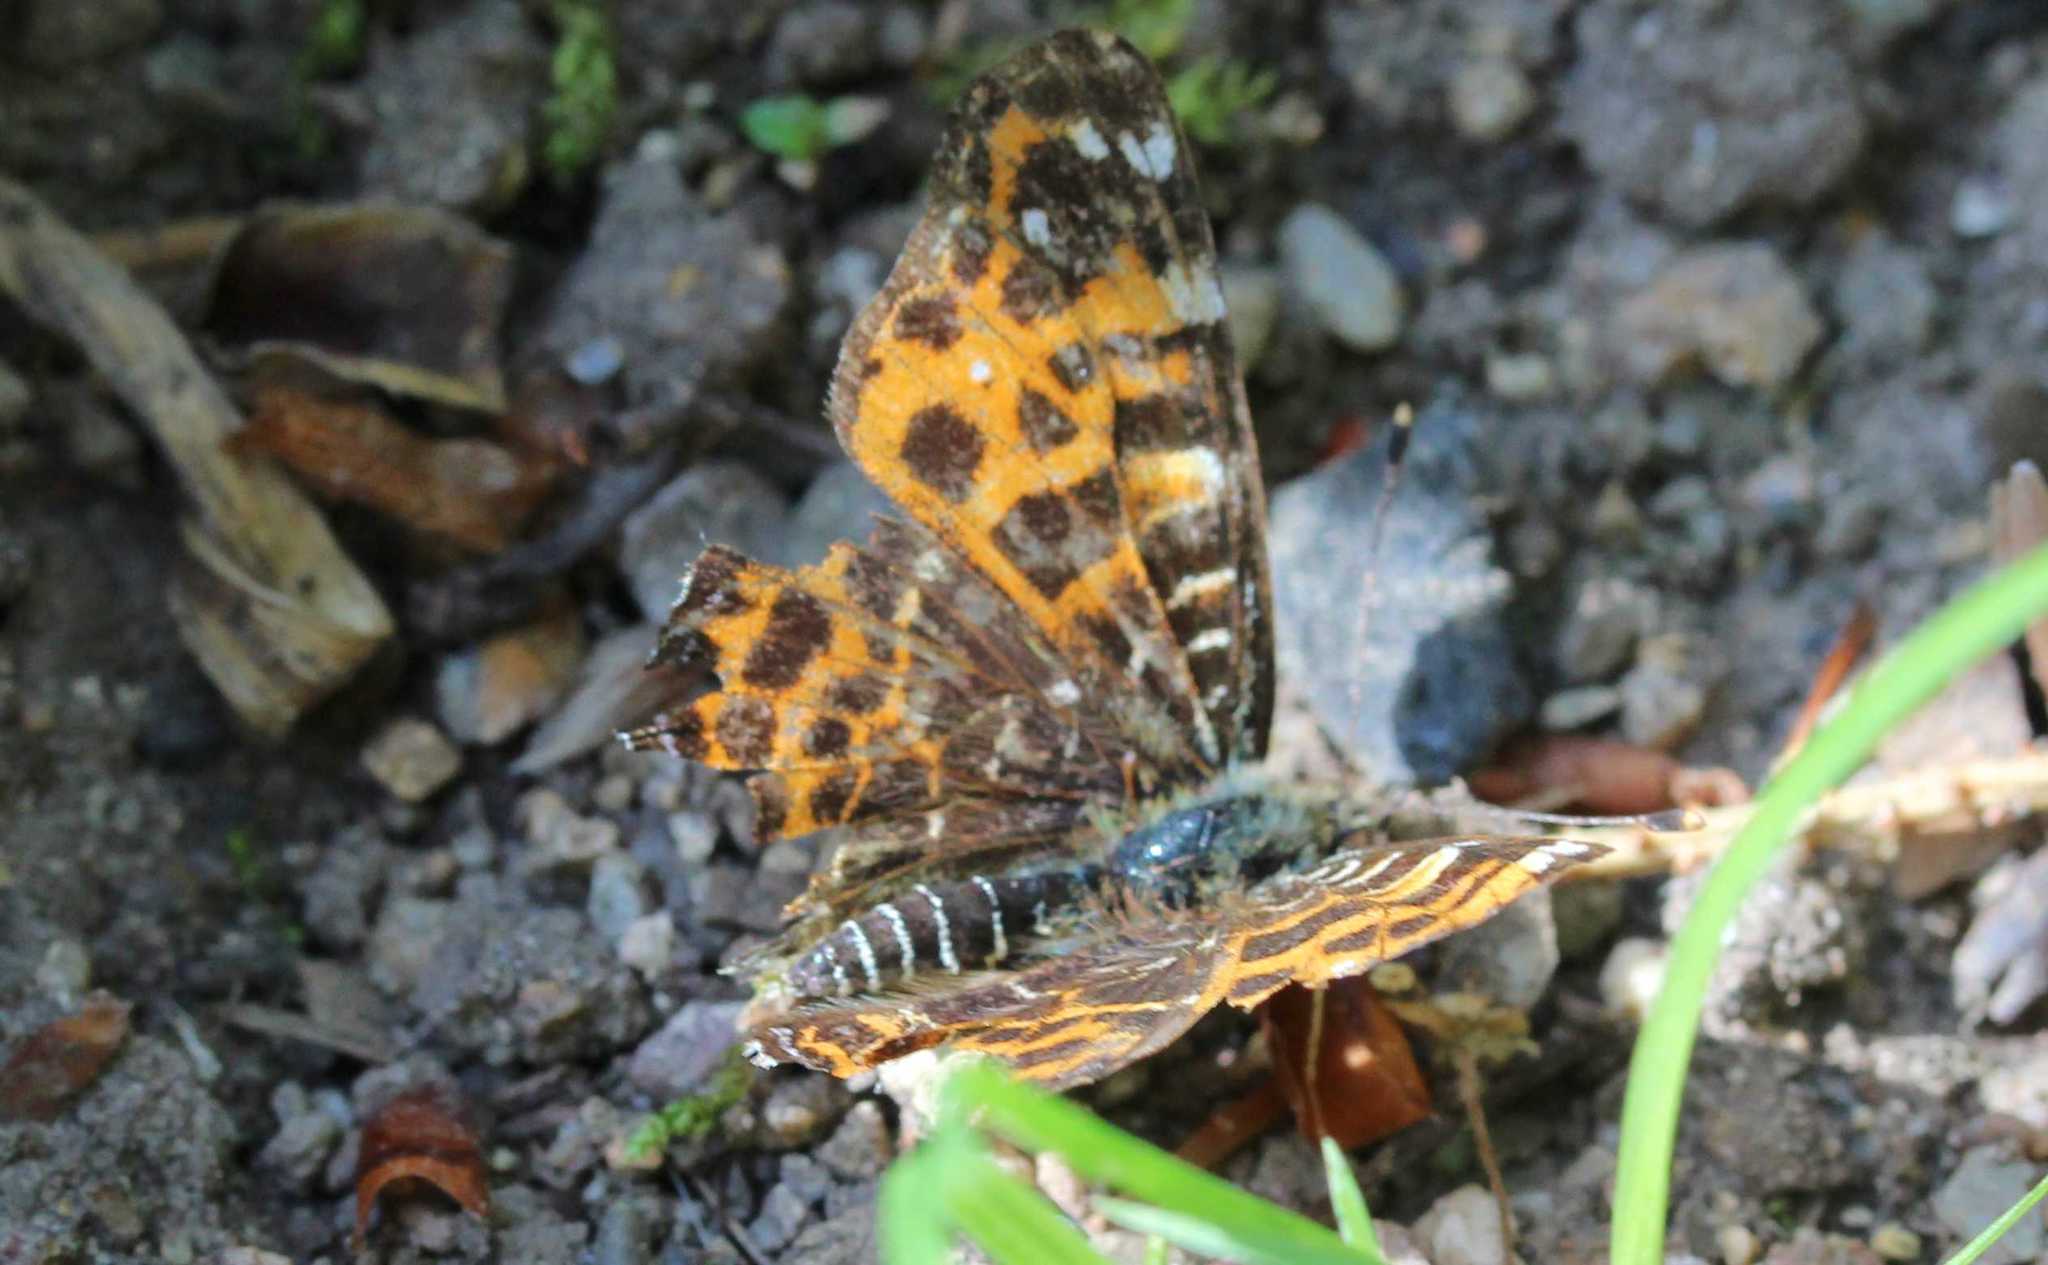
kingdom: Animalia
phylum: Arthropoda
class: Insecta
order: Lepidoptera
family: Nymphalidae
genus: Araschnia
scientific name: Araschnia levana
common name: Map butterfly
